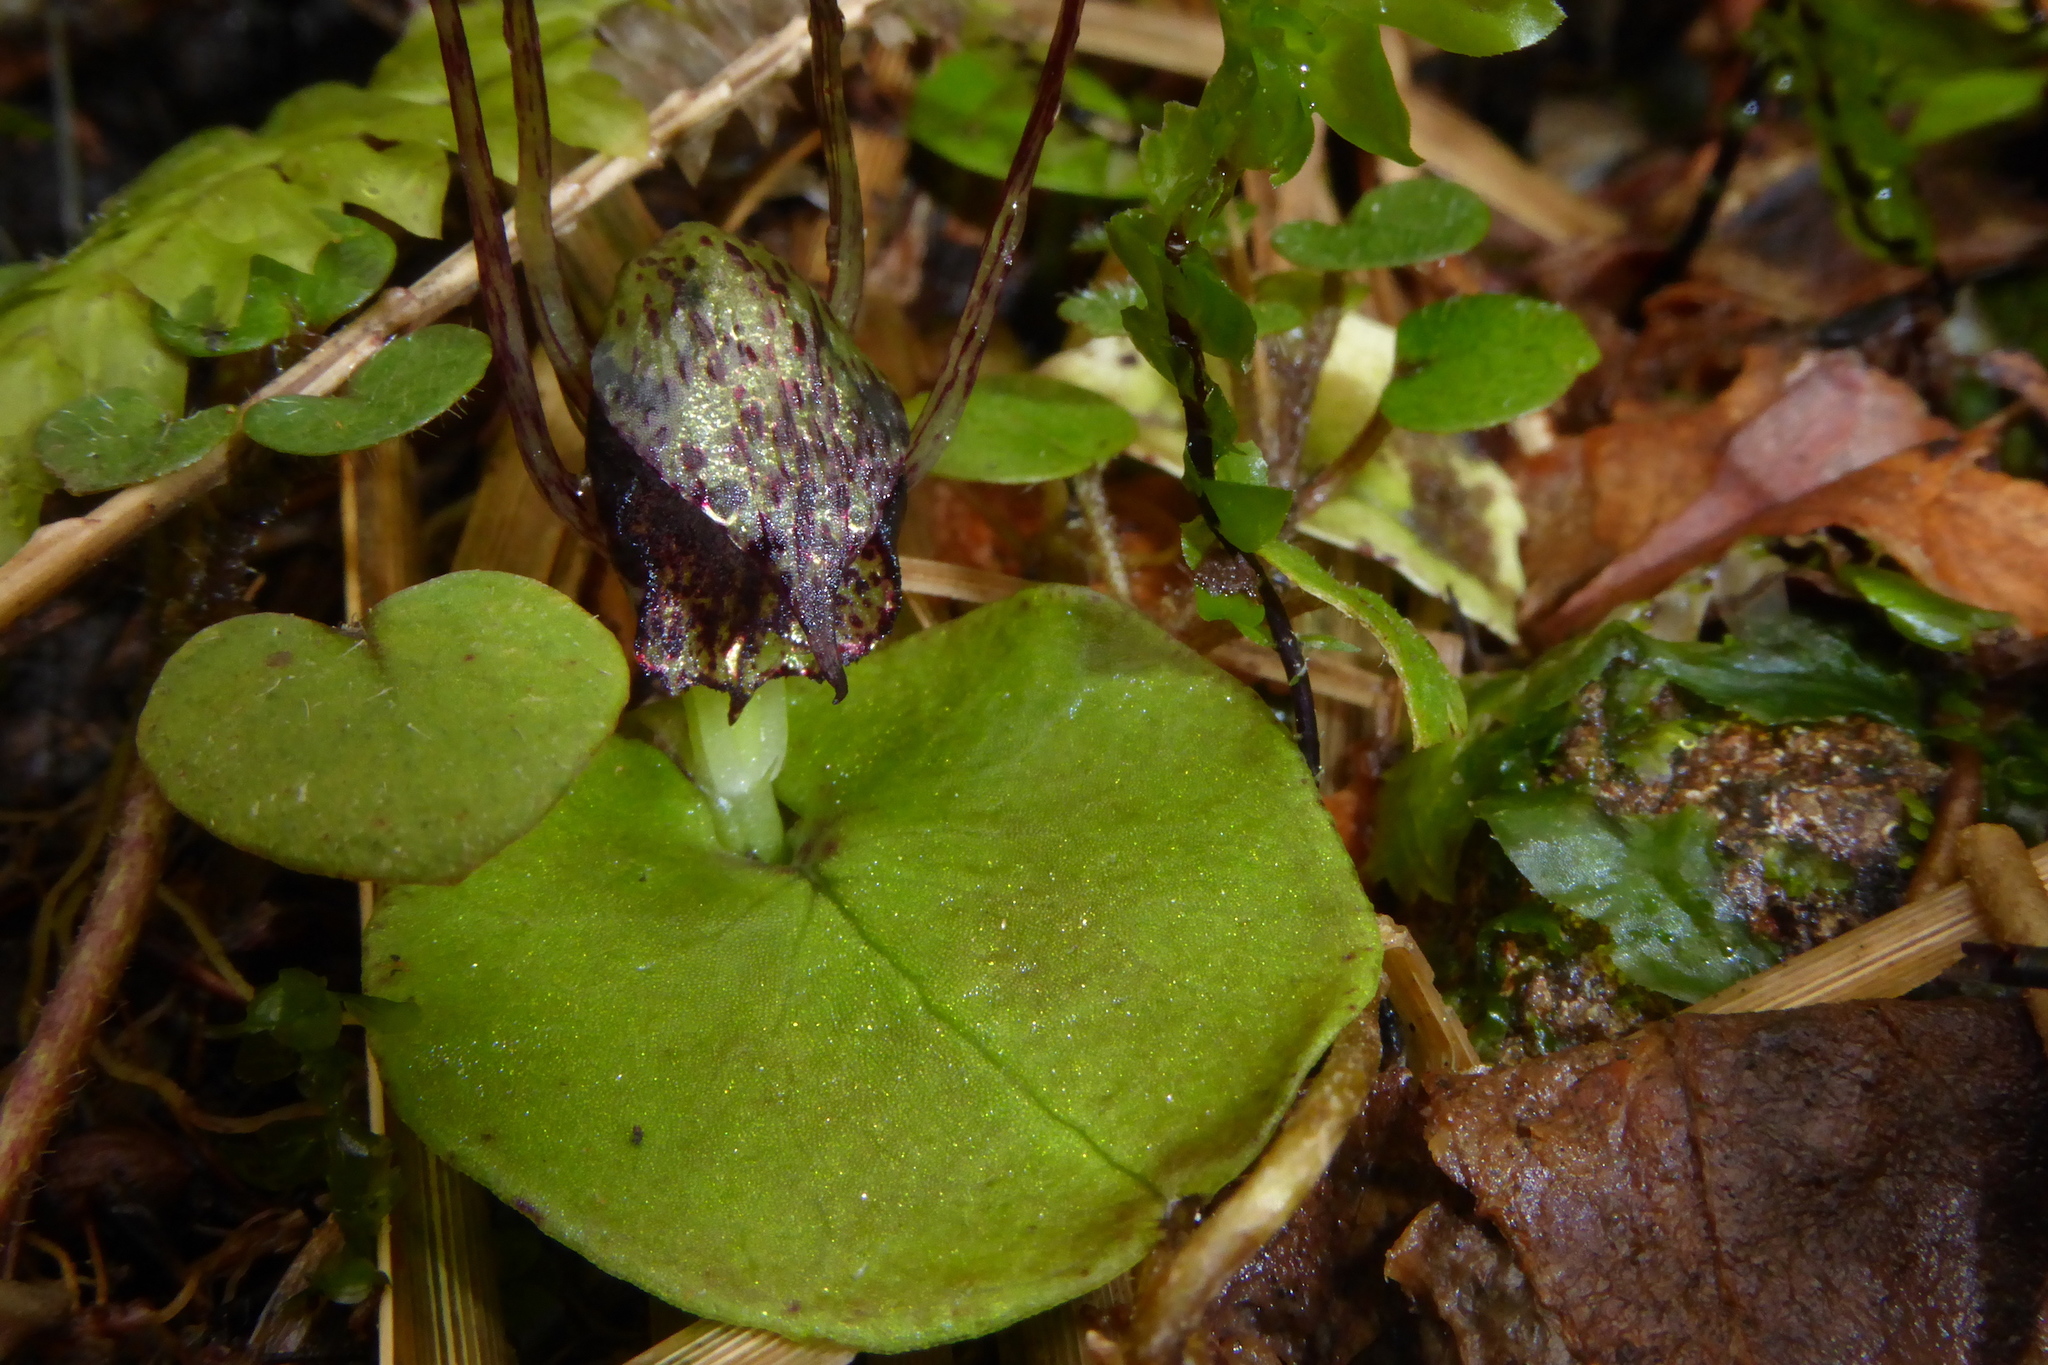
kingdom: Plantae
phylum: Tracheophyta
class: Liliopsida
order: Asparagales
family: Orchidaceae
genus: Corybas
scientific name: Corybas iridescens
